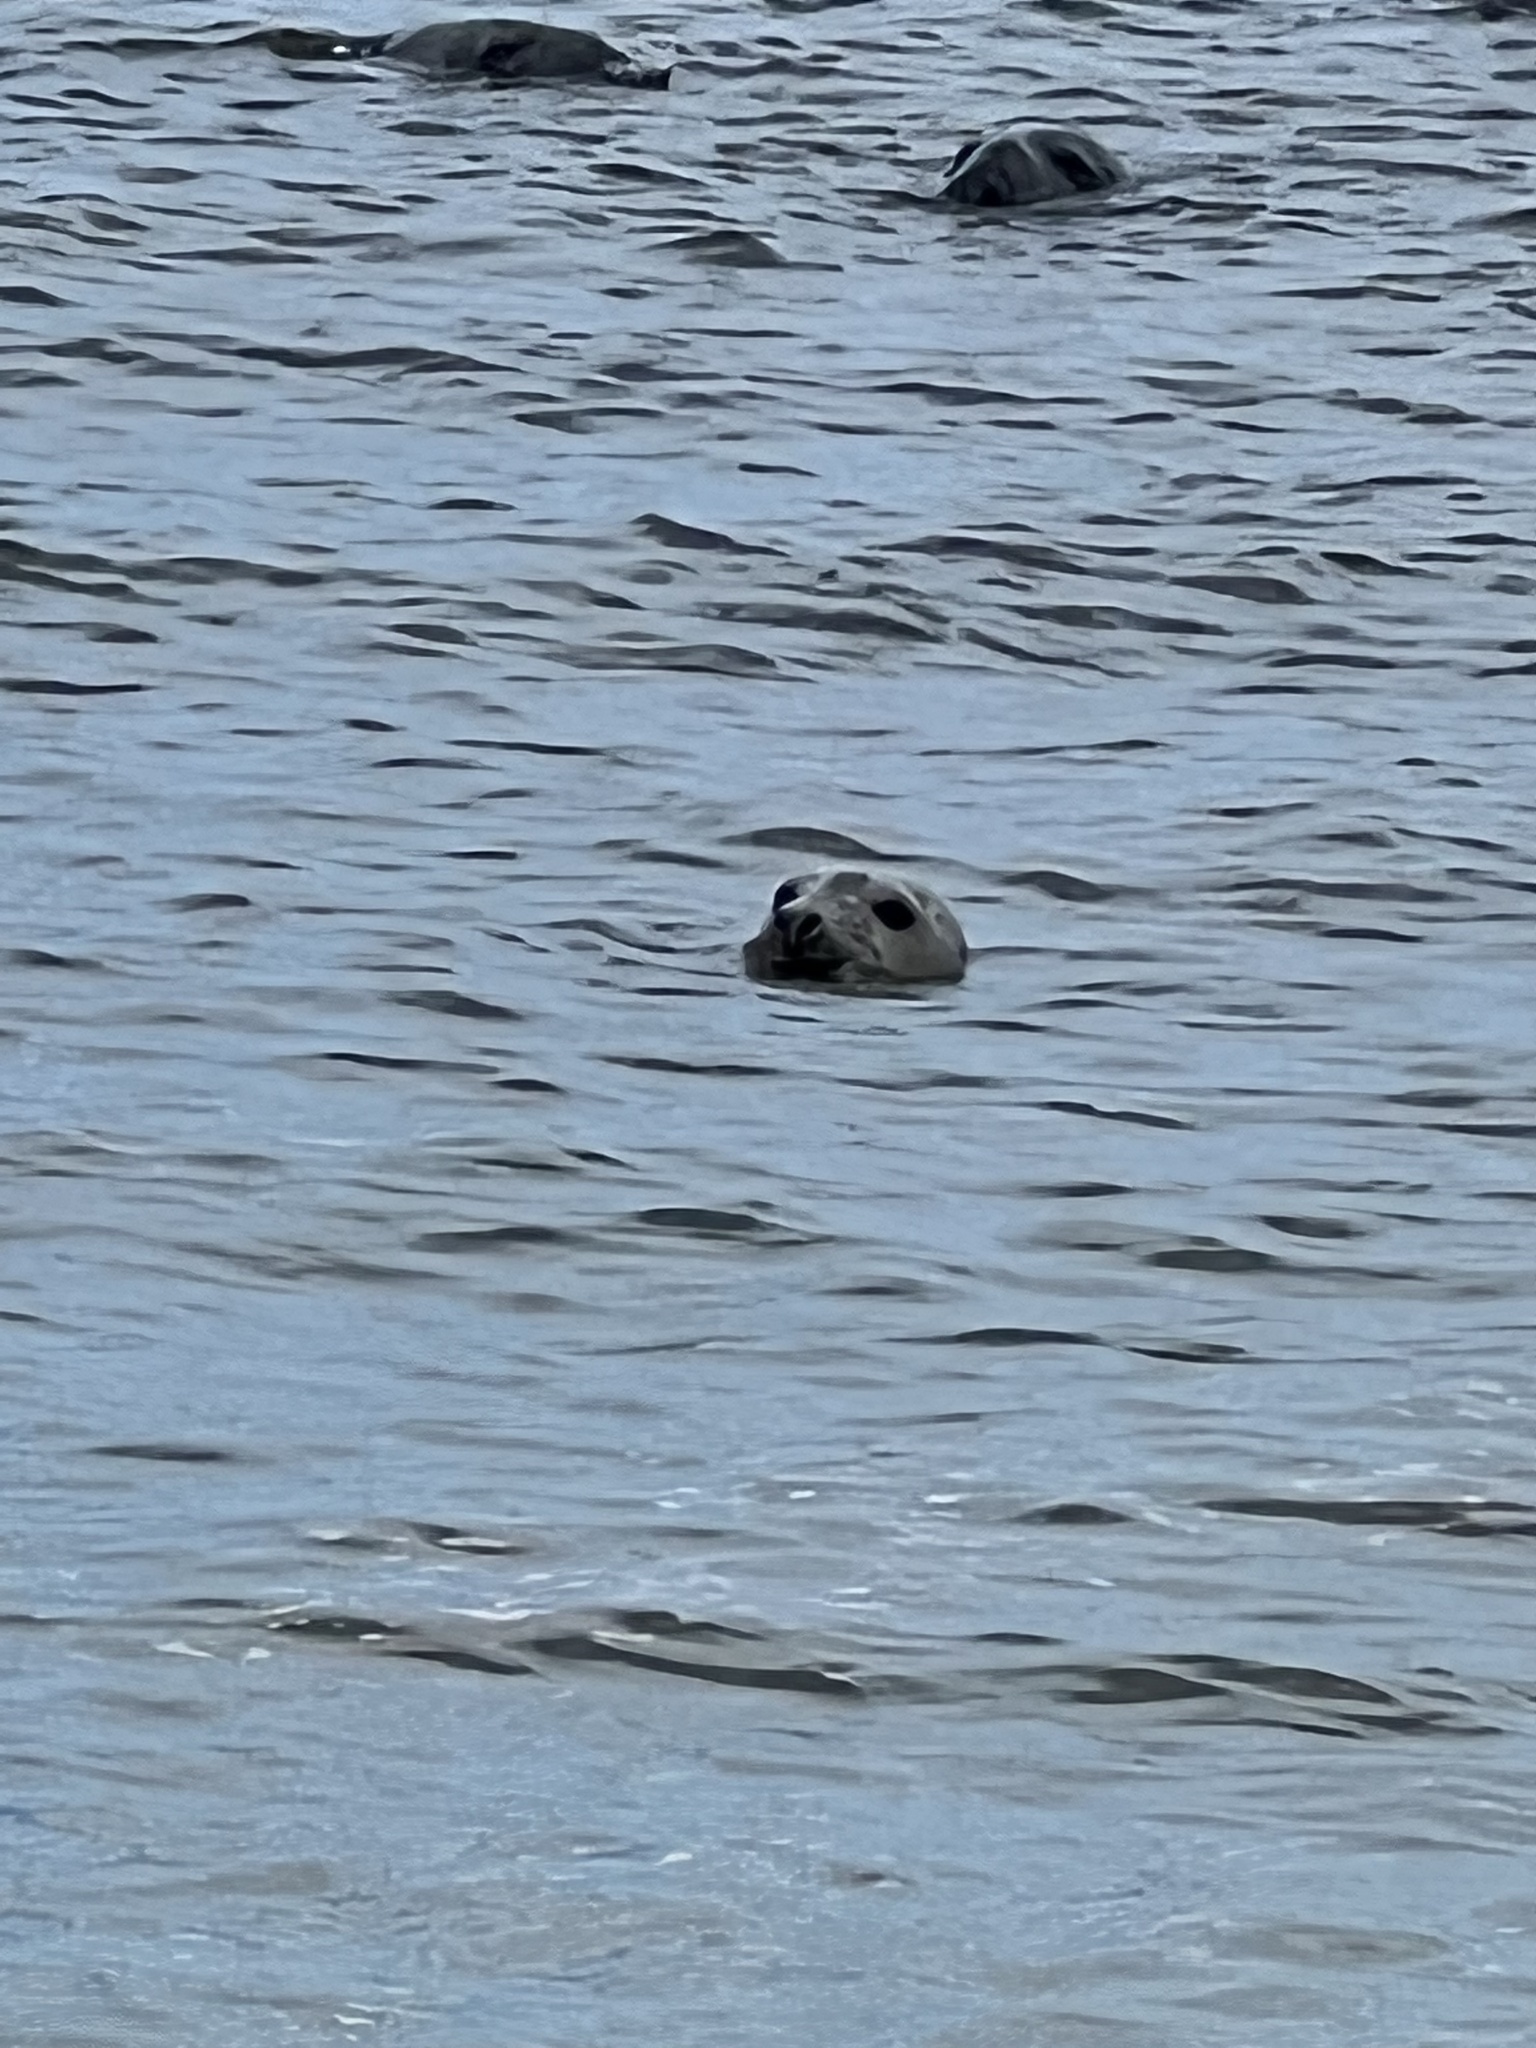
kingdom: Animalia
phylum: Chordata
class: Mammalia
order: Carnivora
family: Phocidae
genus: Halichoerus
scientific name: Halichoerus grypus
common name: Grey seal
